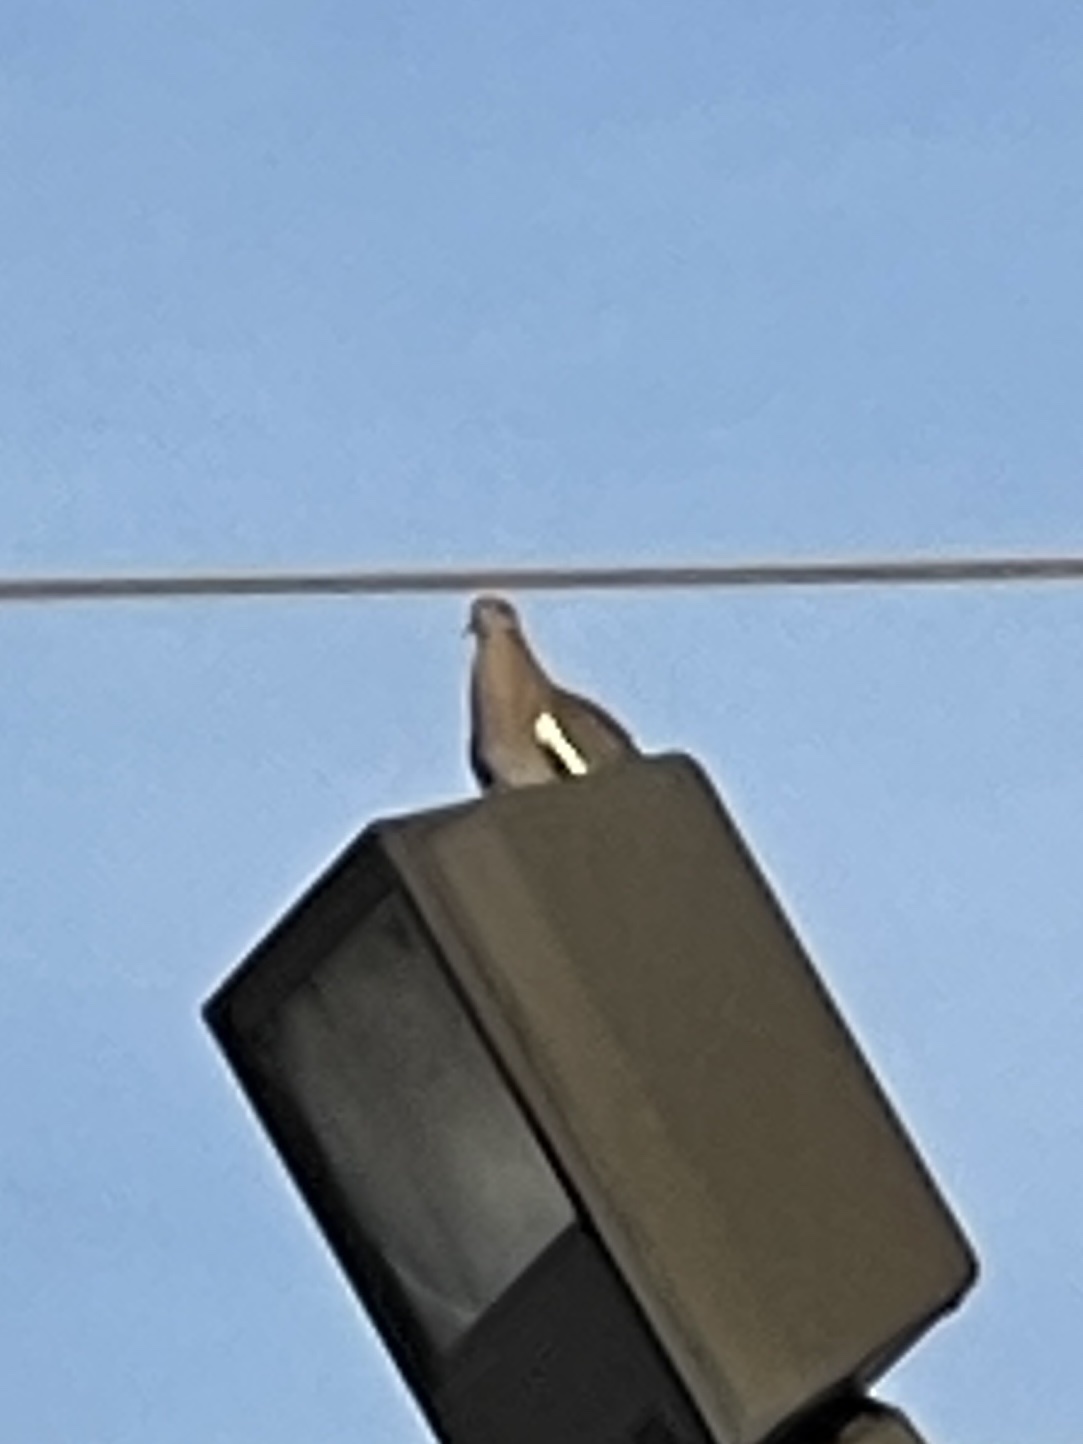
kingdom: Animalia
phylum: Chordata
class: Aves
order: Columbiformes
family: Columbidae
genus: Zenaida
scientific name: Zenaida asiatica
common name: White-winged dove
